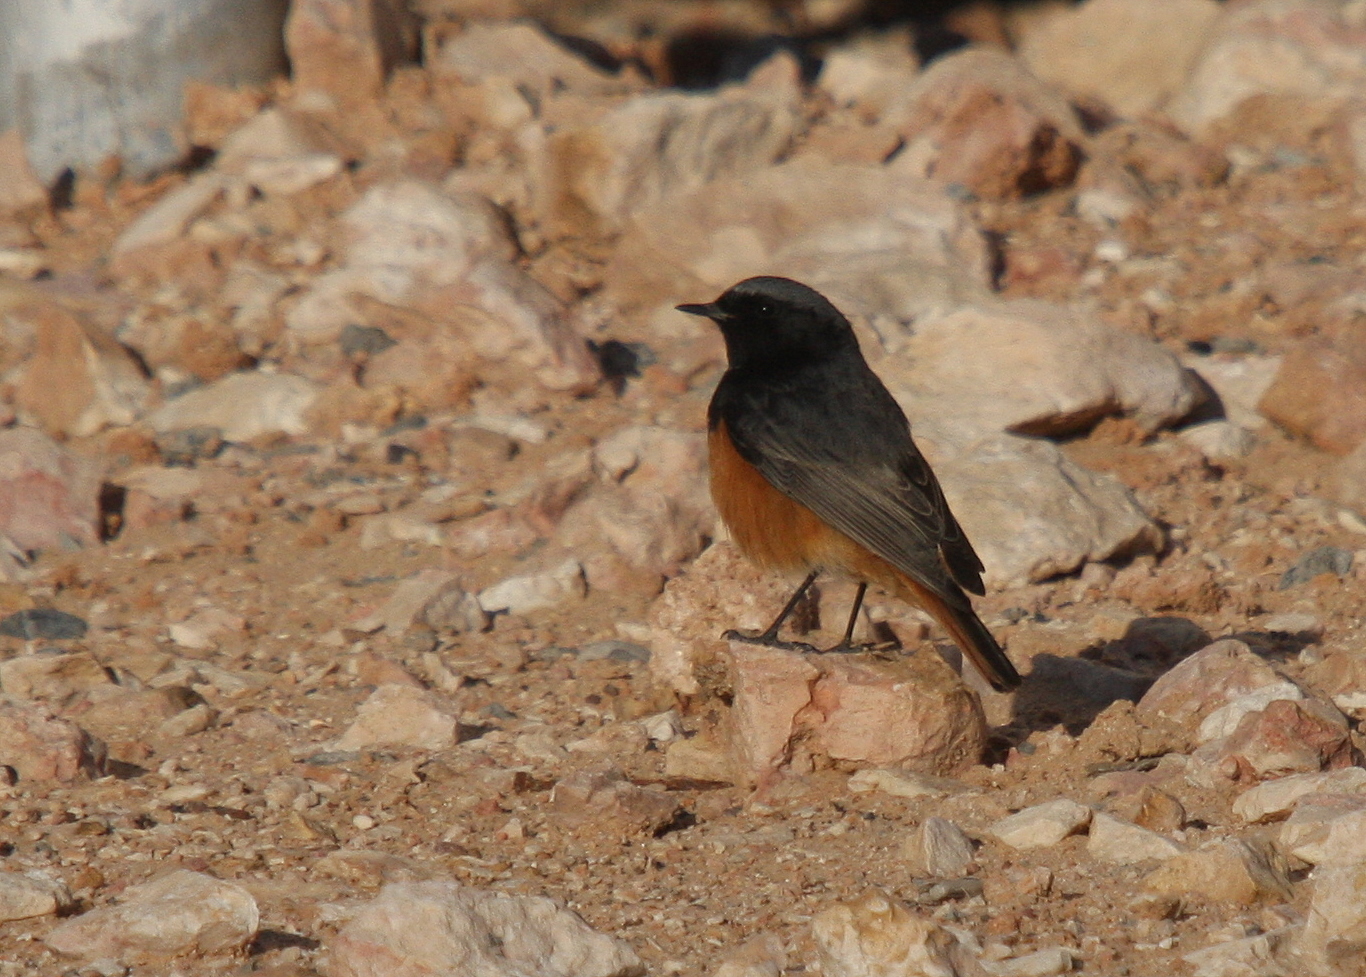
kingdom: Animalia
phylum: Chordata
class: Aves
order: Passeriformes
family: Muscicapidae
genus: Phoenicurus
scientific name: Phoenicurus ochruros
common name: Black redstart
